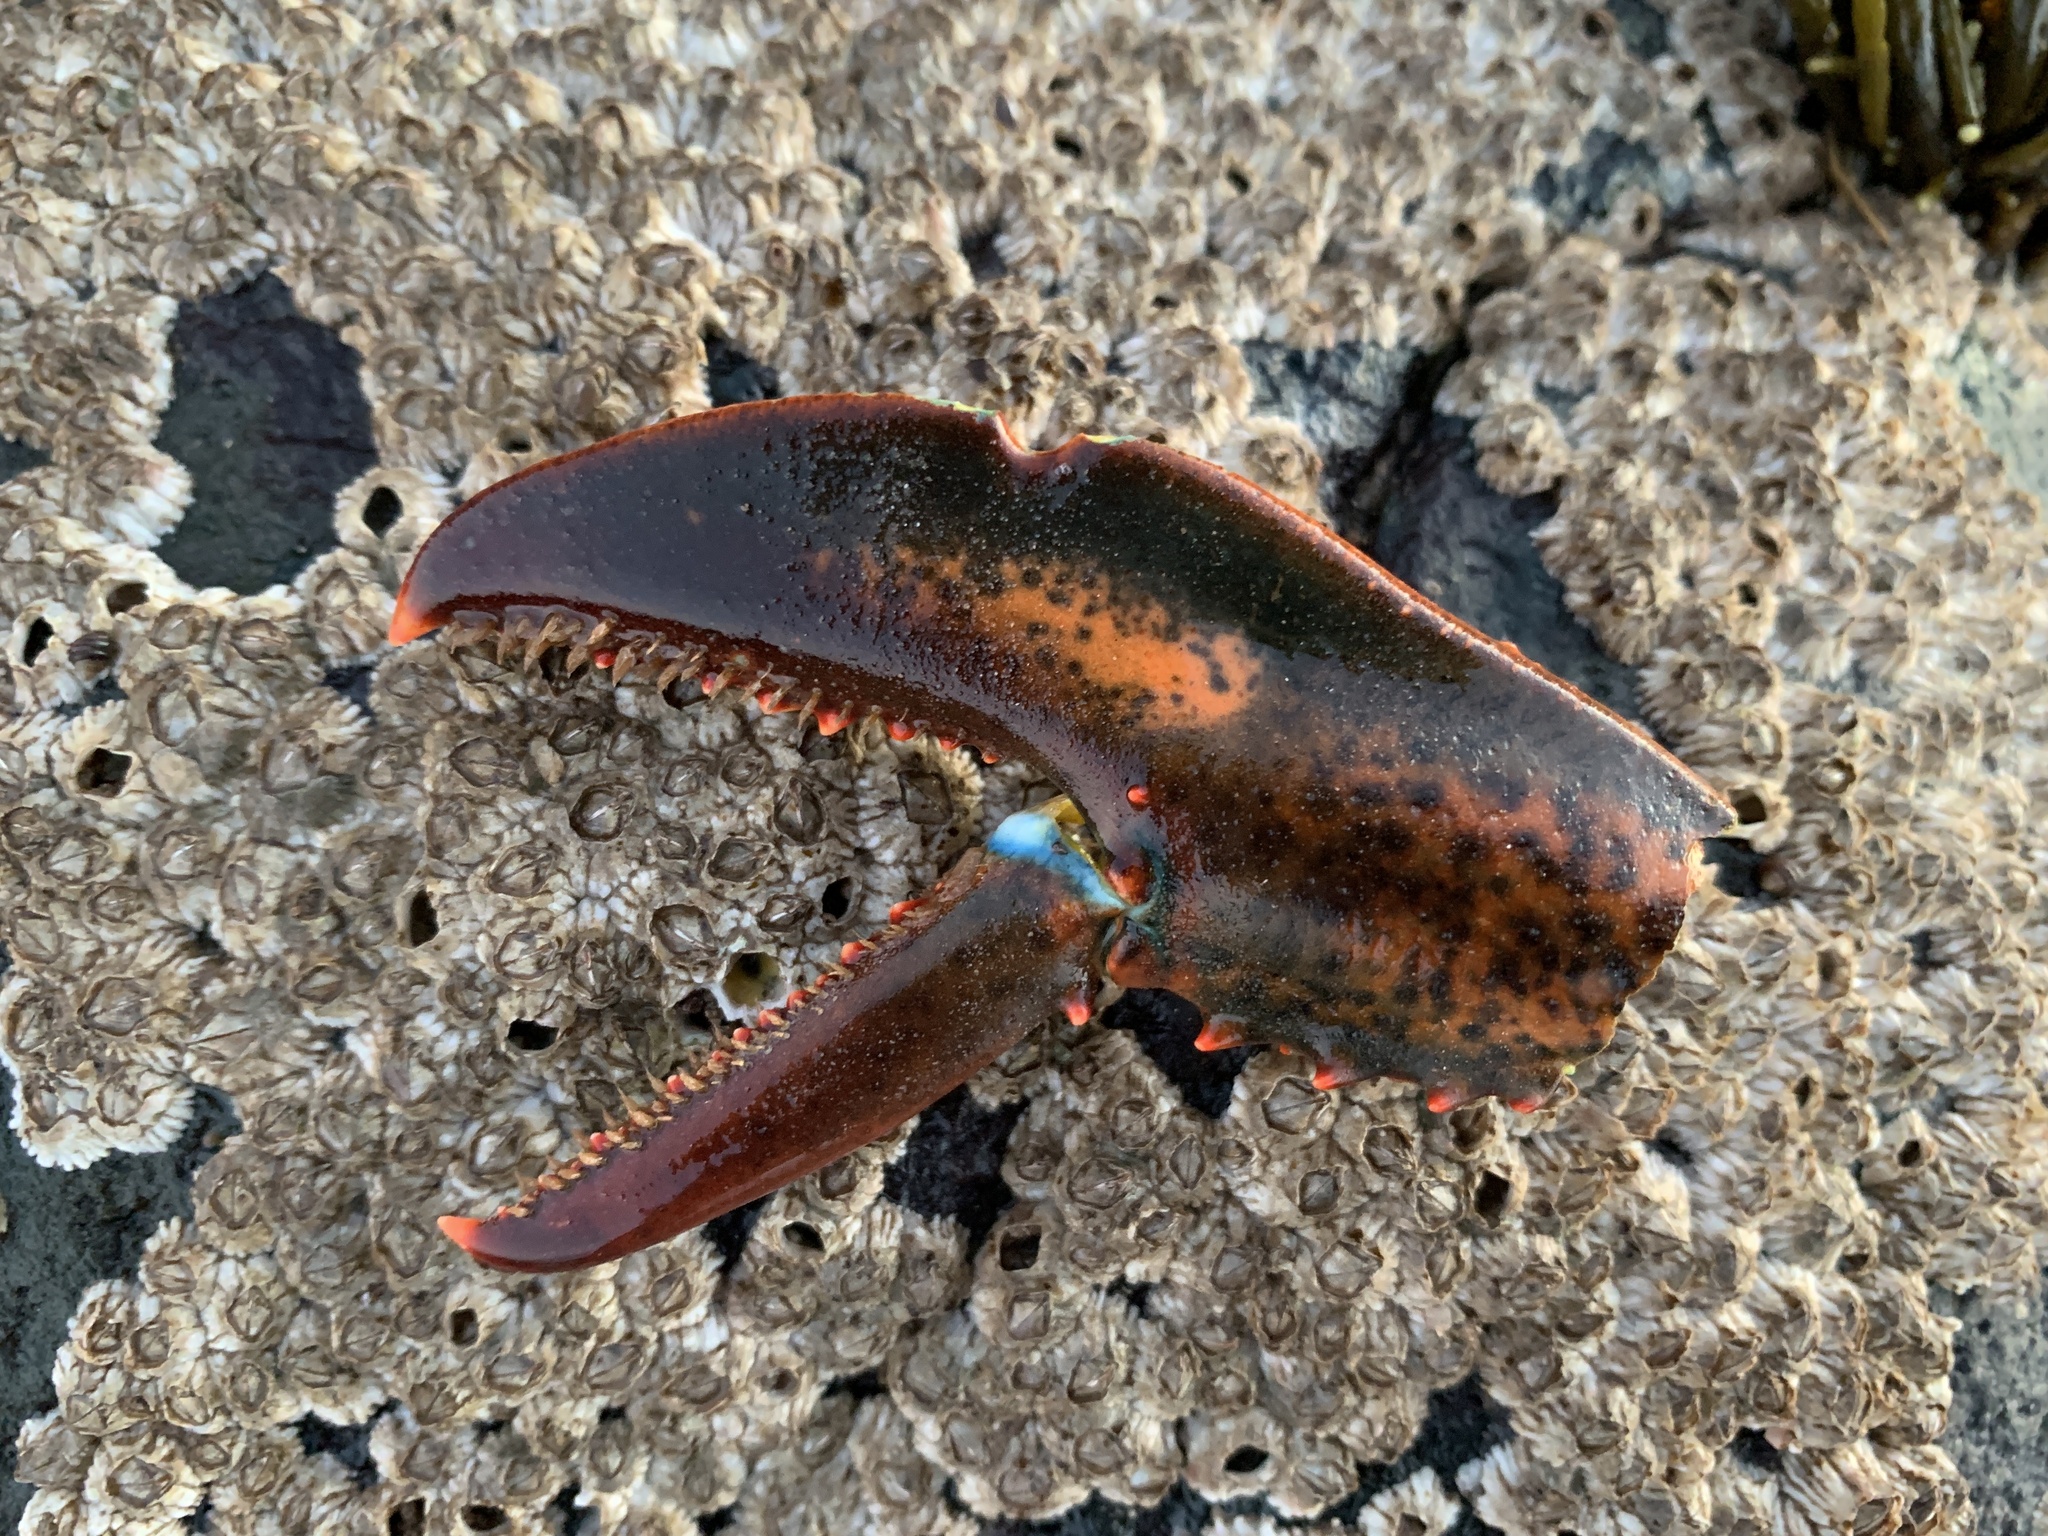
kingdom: Animalia
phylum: Arthropoda
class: Malacostraca
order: Decapoda
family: Nephropidae
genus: Homarus
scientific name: Homarus americanus
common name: American lobster
